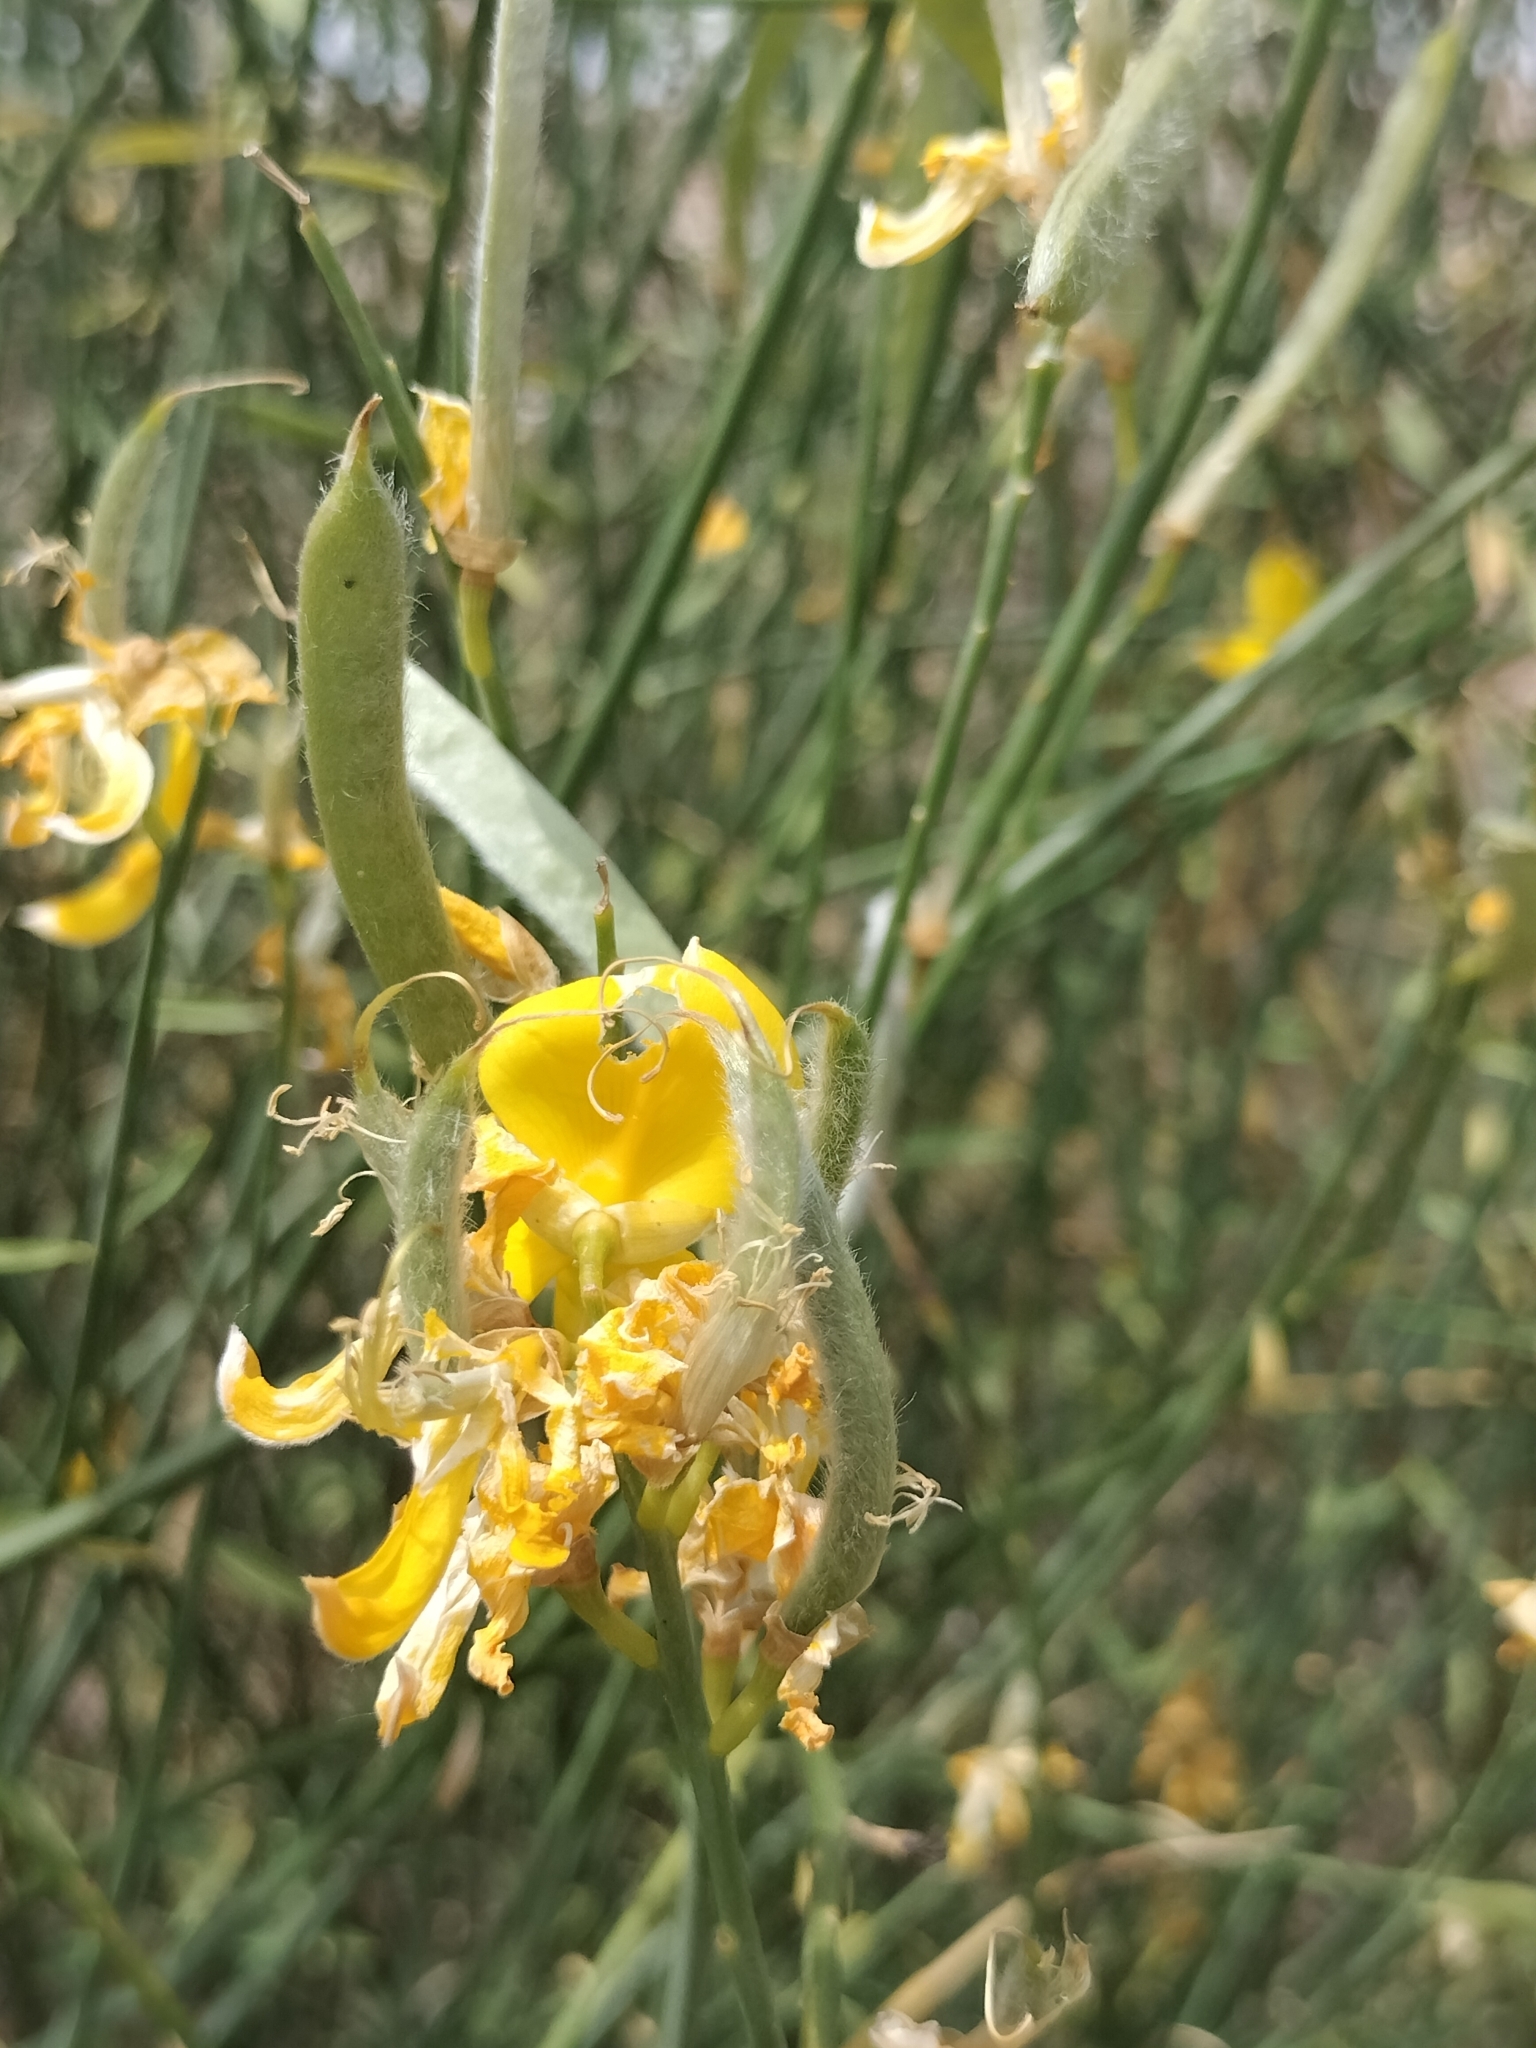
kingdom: Plantae
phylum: Tracheophyta
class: Magnoliopsida
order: Fabales
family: Fabaceae
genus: Spartium
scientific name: Spartium junceum
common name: Spanish broom
